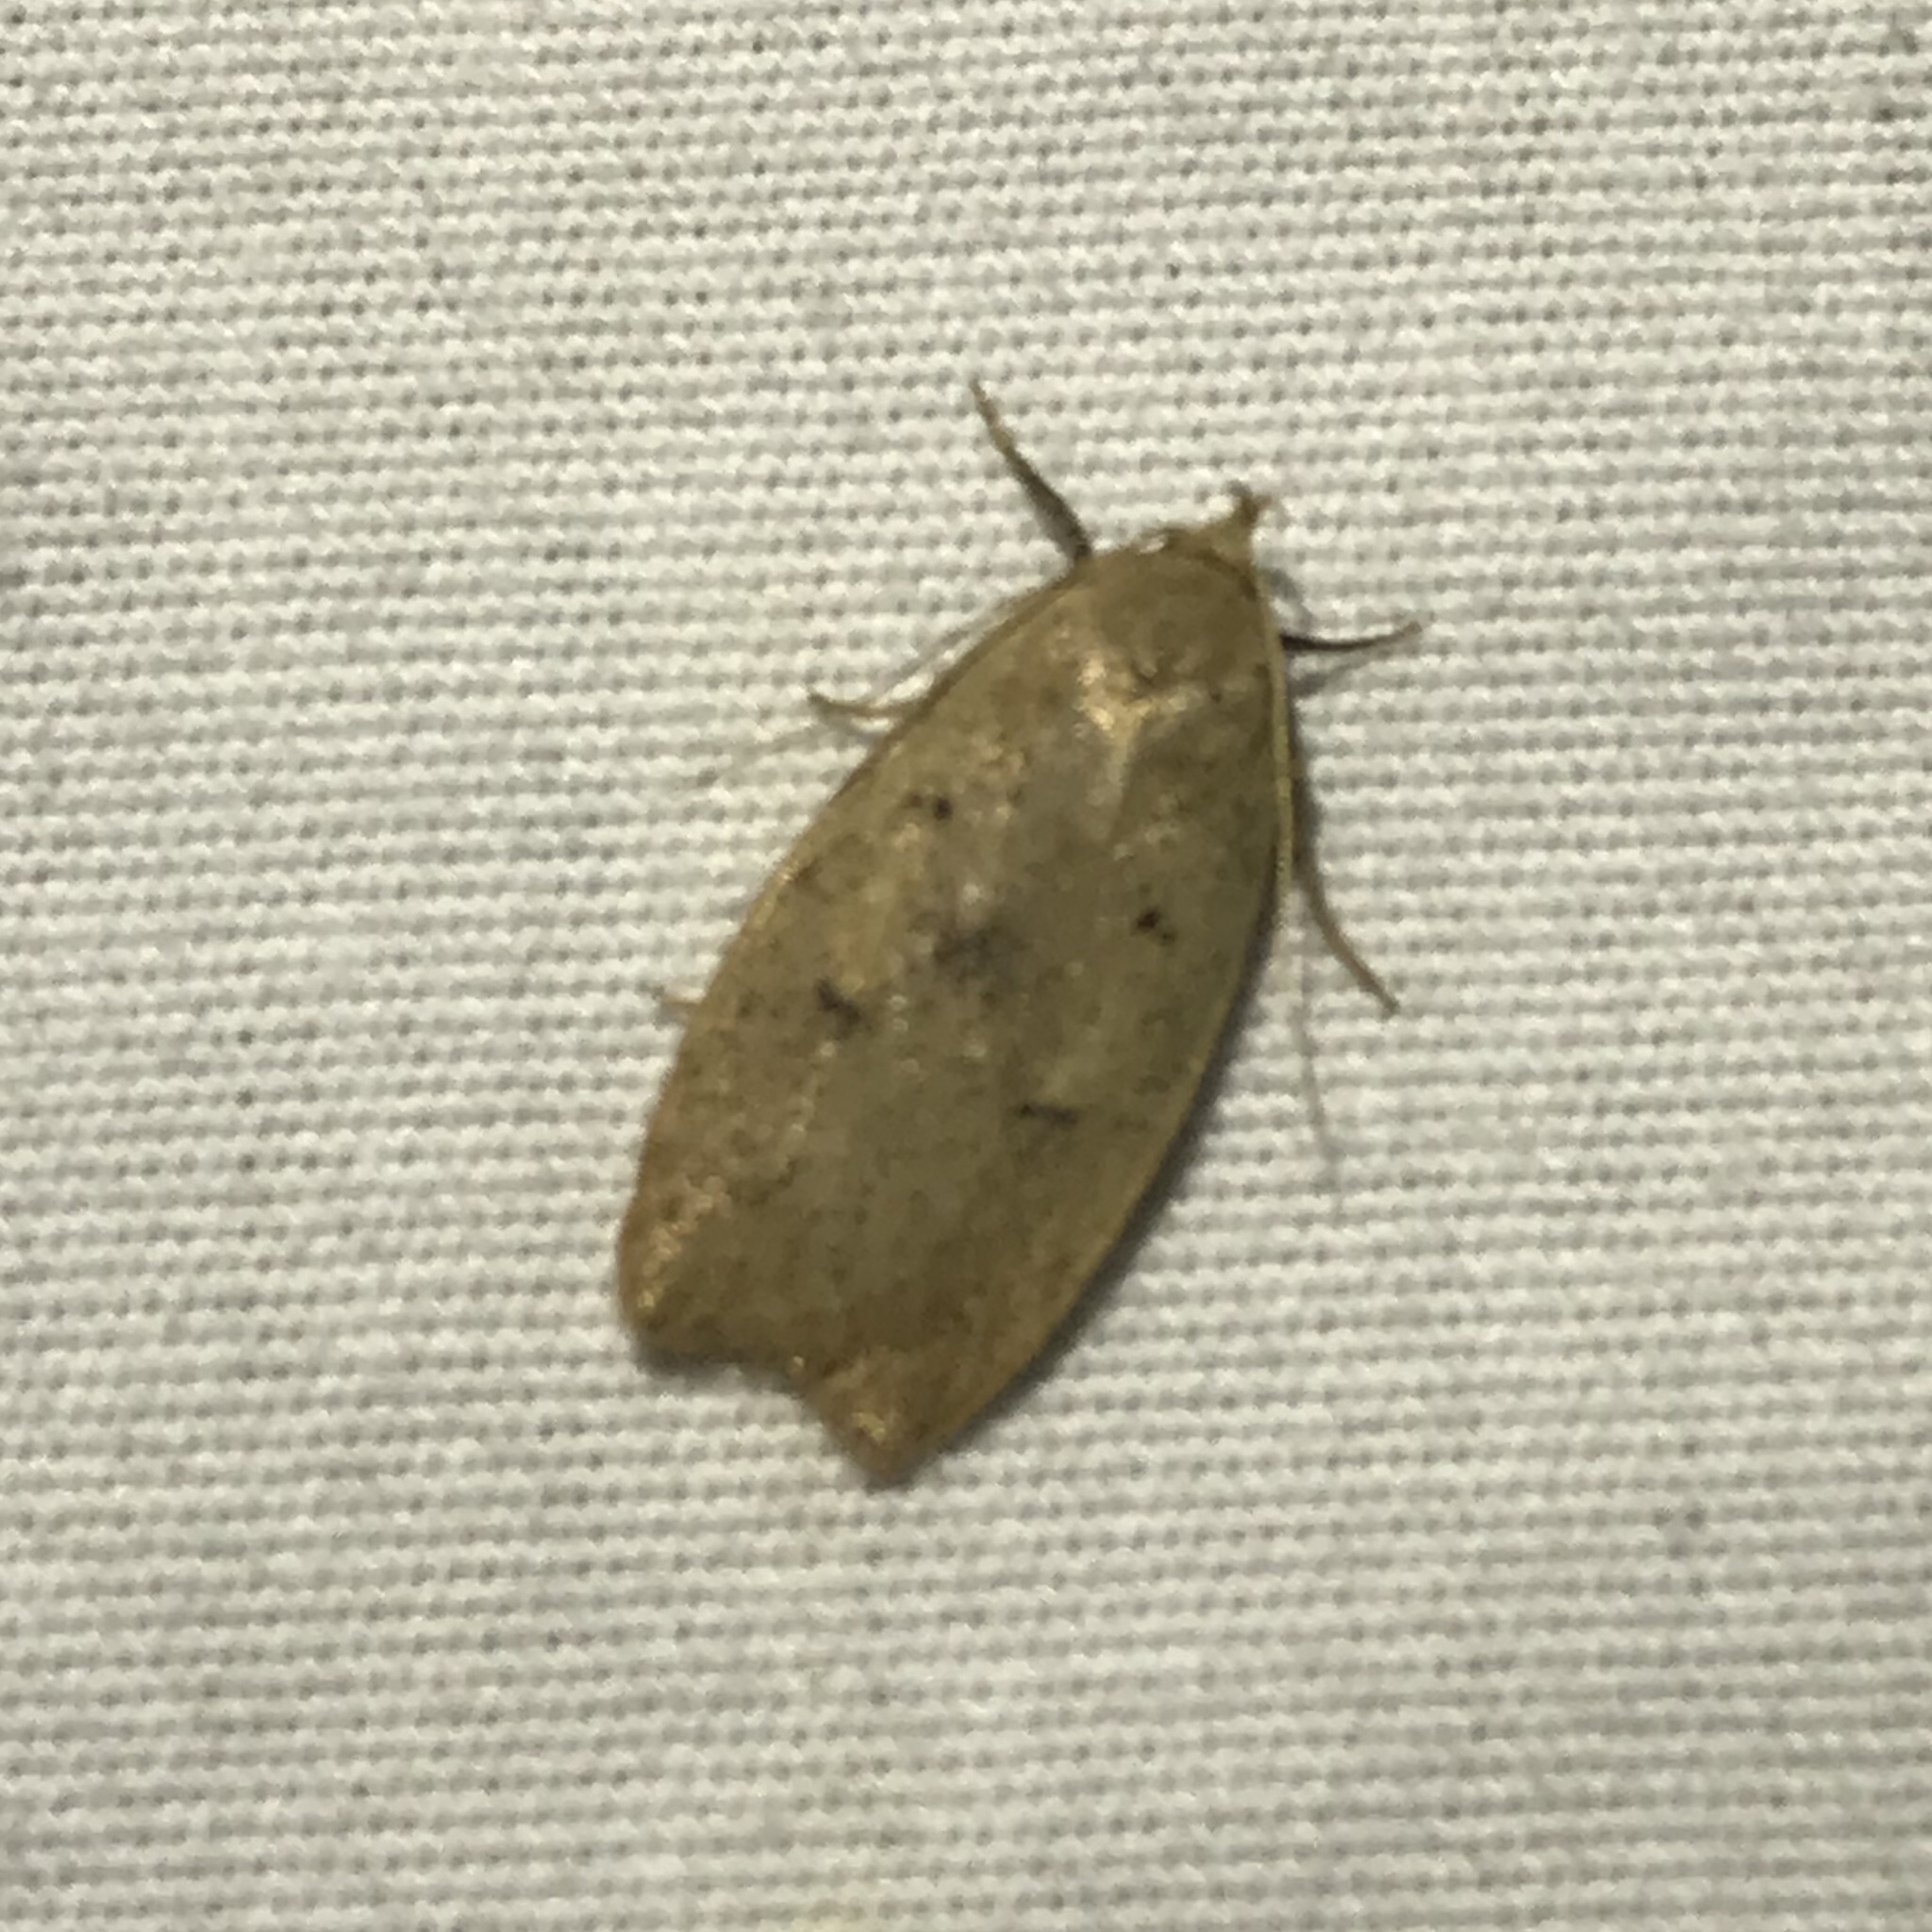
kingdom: Animalia
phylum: Arthropoda
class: Insecta
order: Lepidoptera
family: Peleopodidae
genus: Machimia
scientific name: Machimia tentoriferella
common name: Gold-striped leaftier moth
